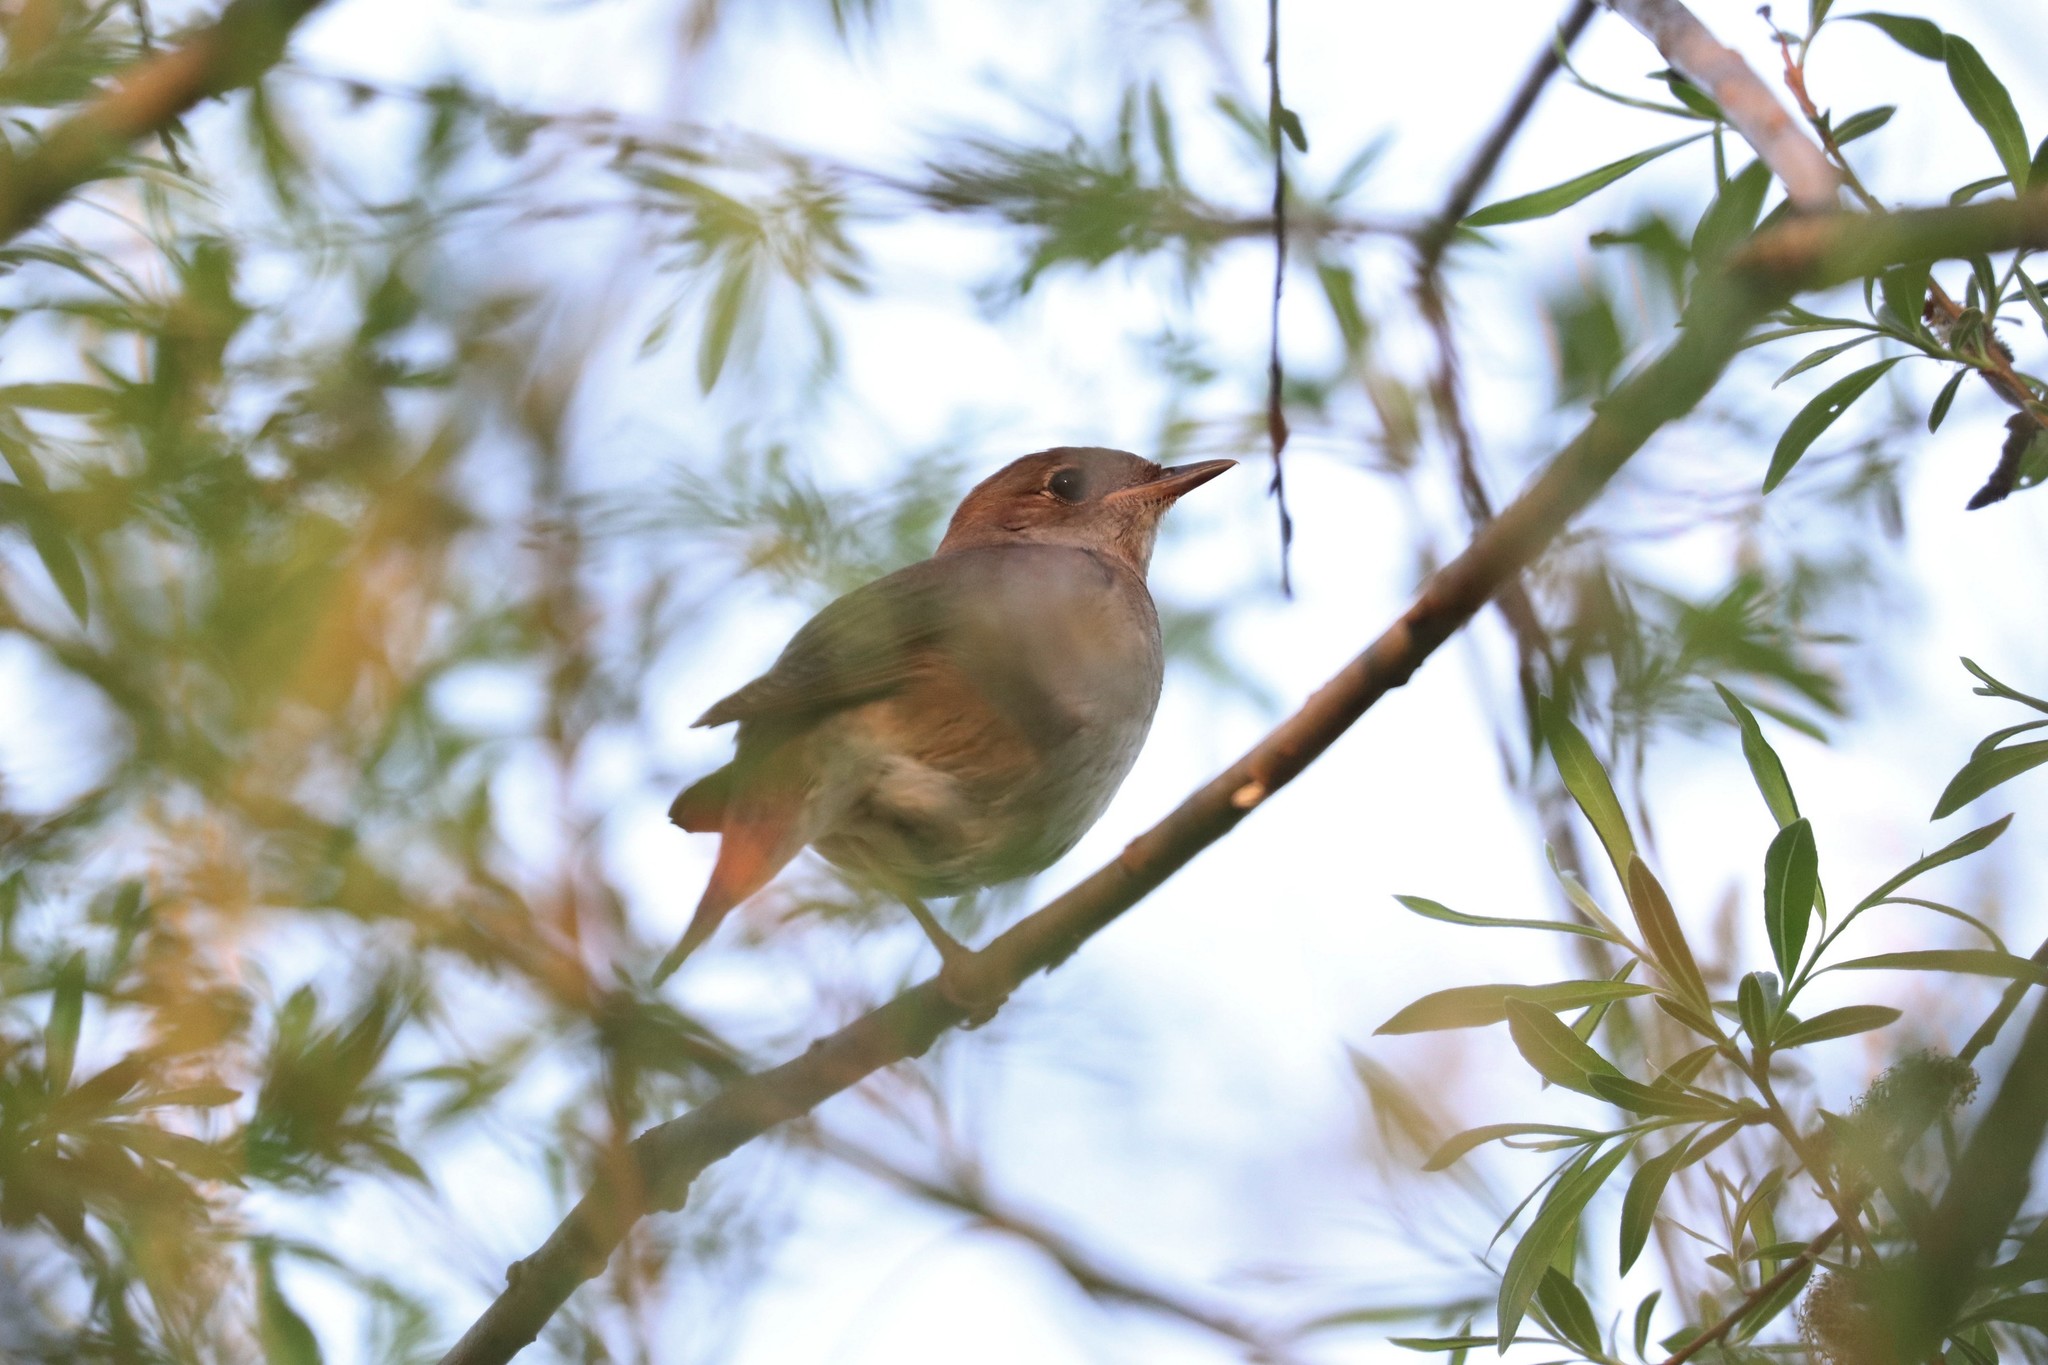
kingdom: Animalia
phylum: Chordata
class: Aves
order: Passeriformes
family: Muscicapidae
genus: Luscinia
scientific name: Luscinia luscinia
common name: Thrush nightingale
